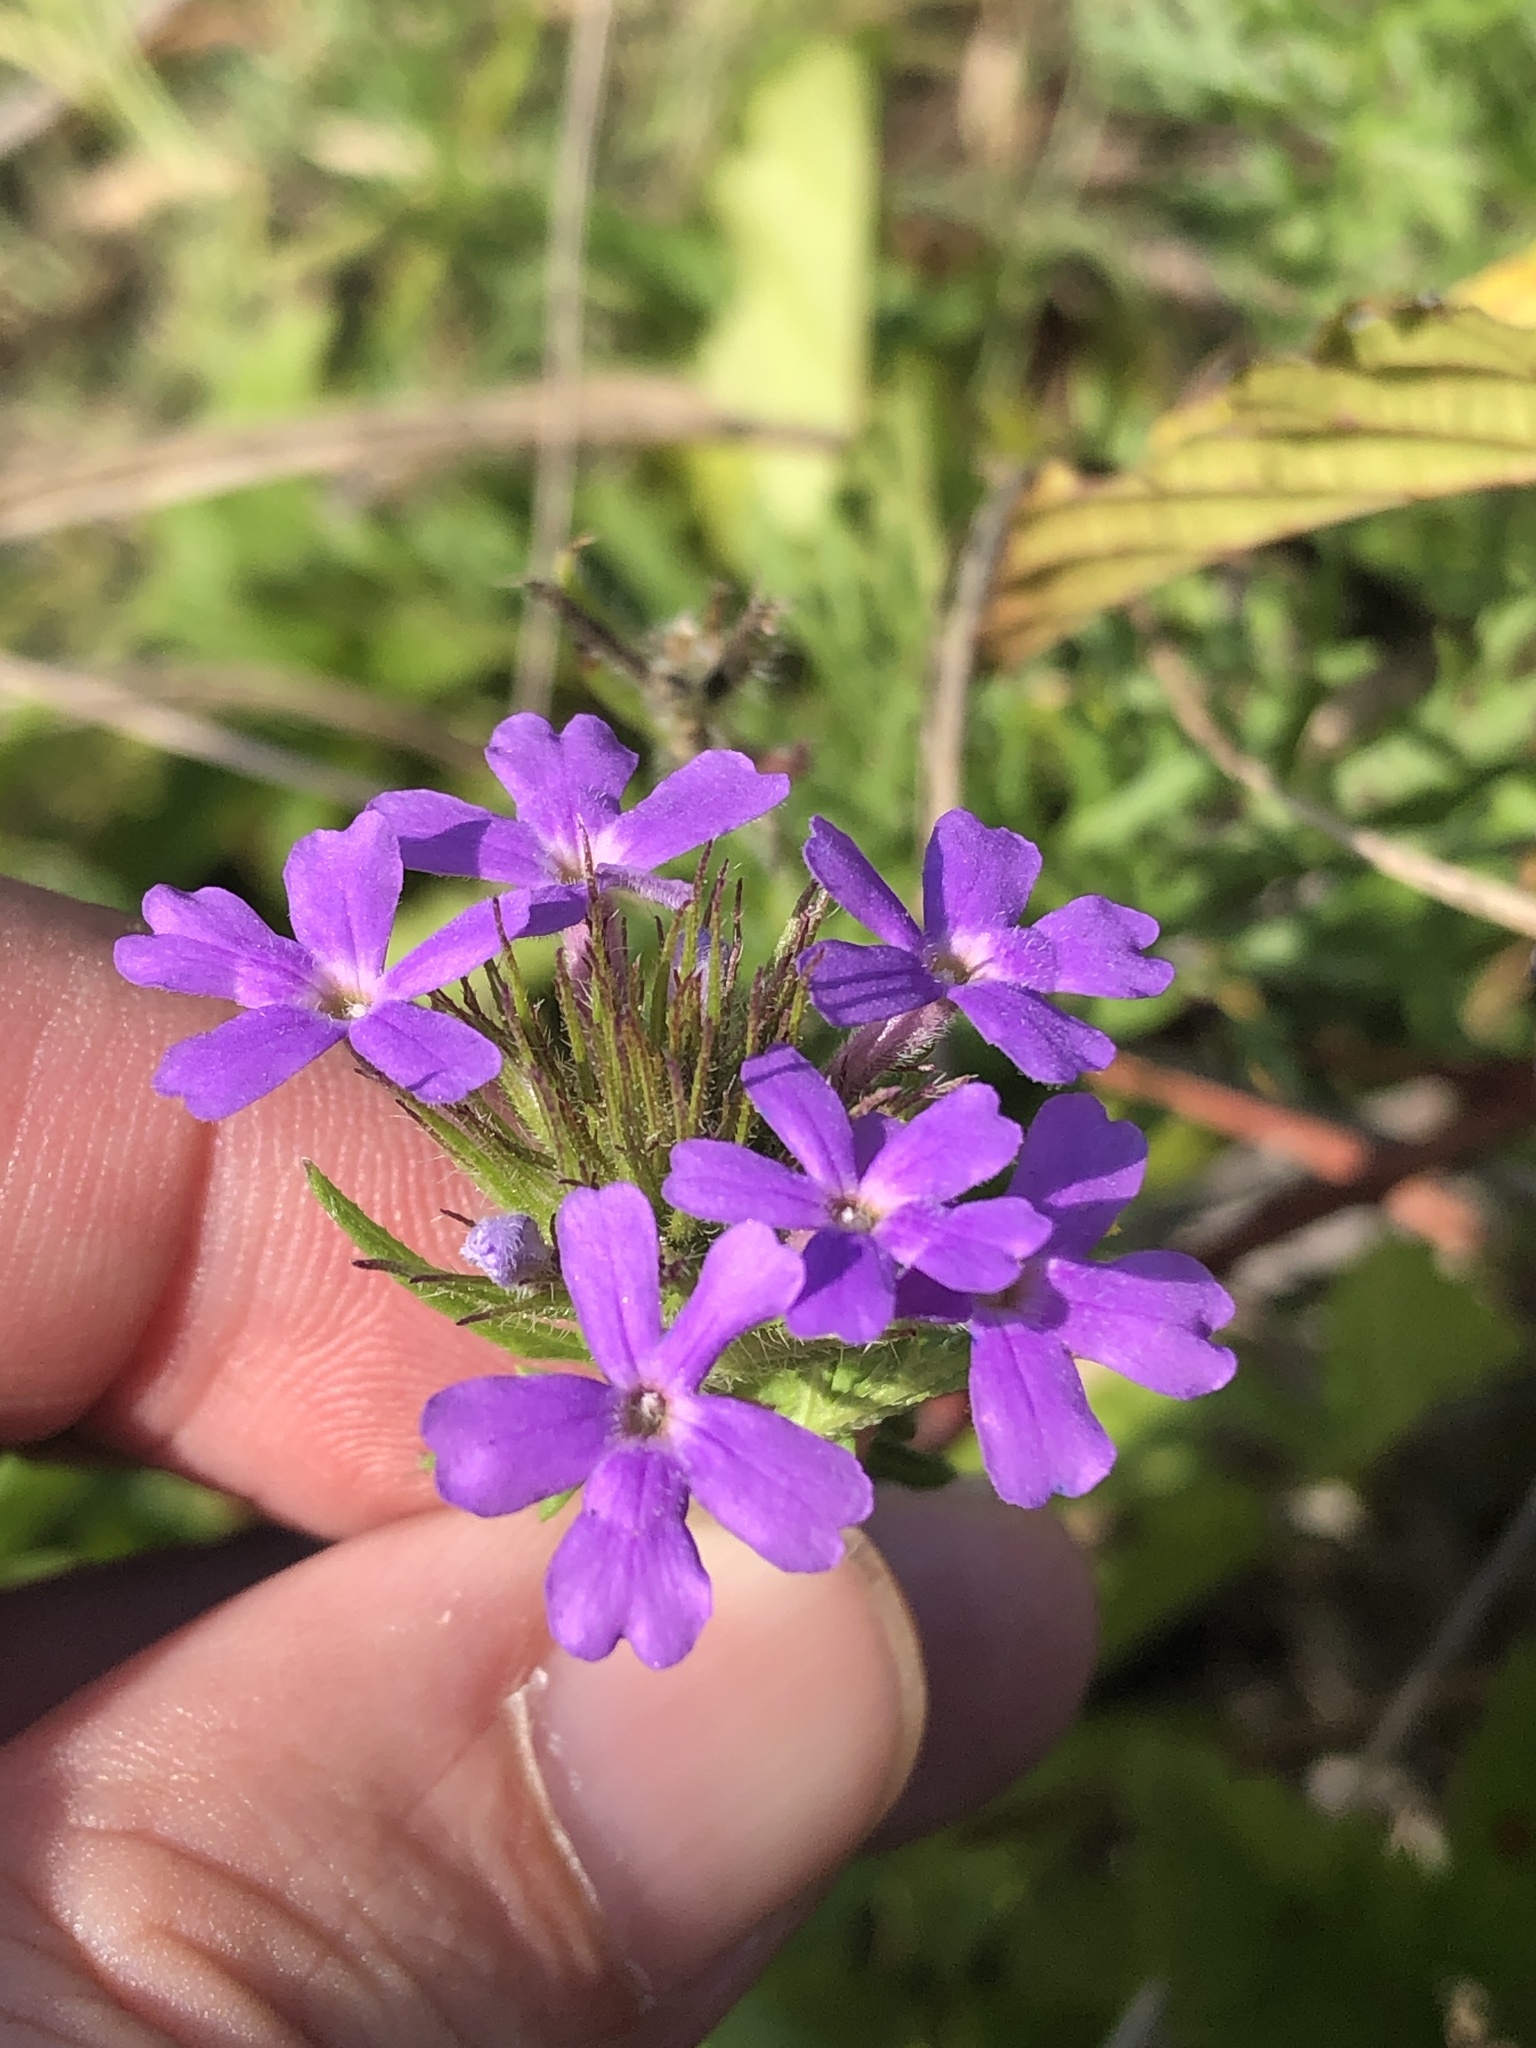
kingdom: Plantae
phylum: Tracheophyta
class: Magnoliopsida
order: Lamiales
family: Verbenaceae
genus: Verbena
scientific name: Verbena bipinnatifida
